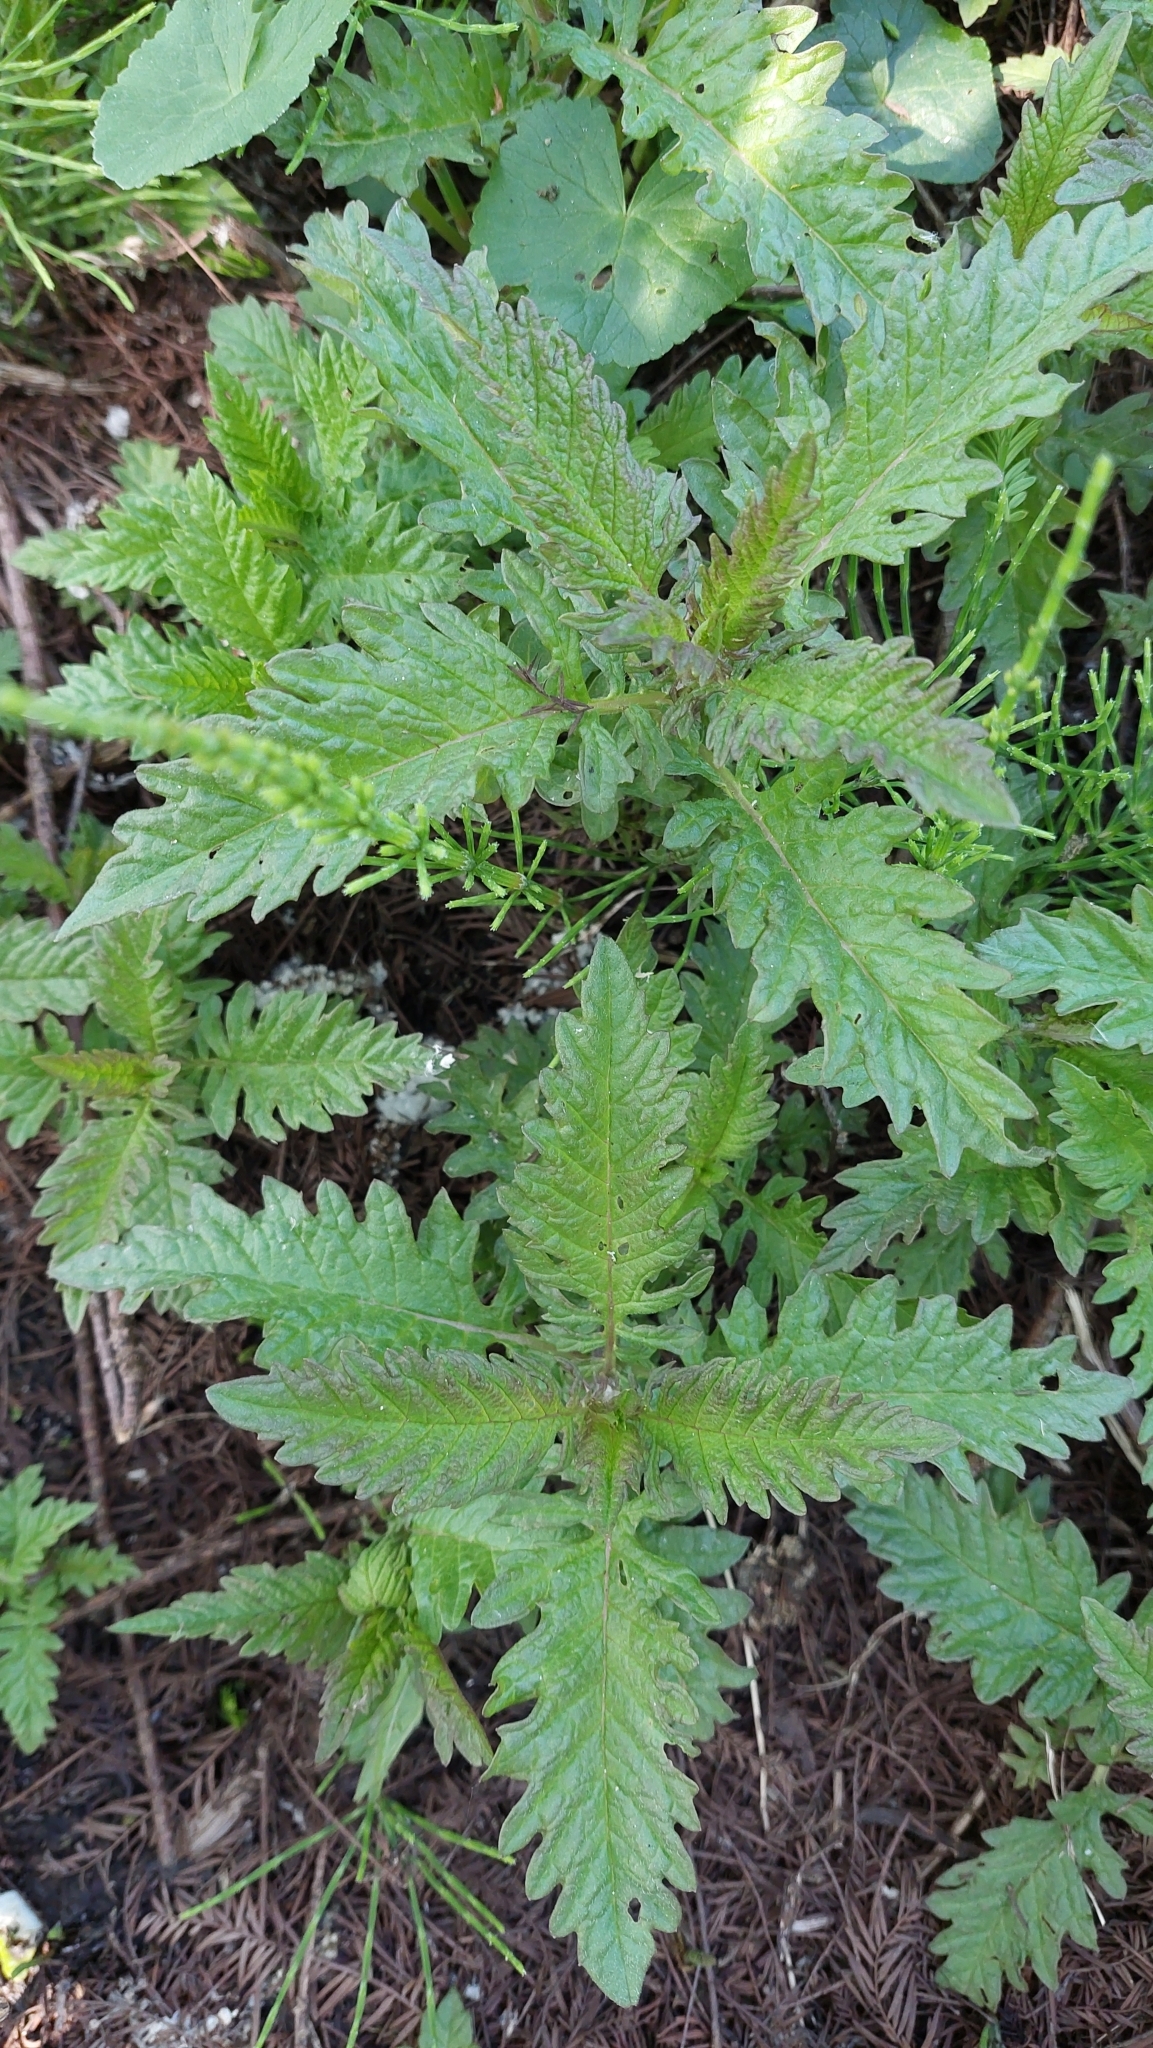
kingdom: Plantae
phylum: Tracheophyta
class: Magnoliopsida
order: Lamiales
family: Lamiaceae
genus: Lycopus
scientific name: Lycopus europaeus
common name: European bugleweed
